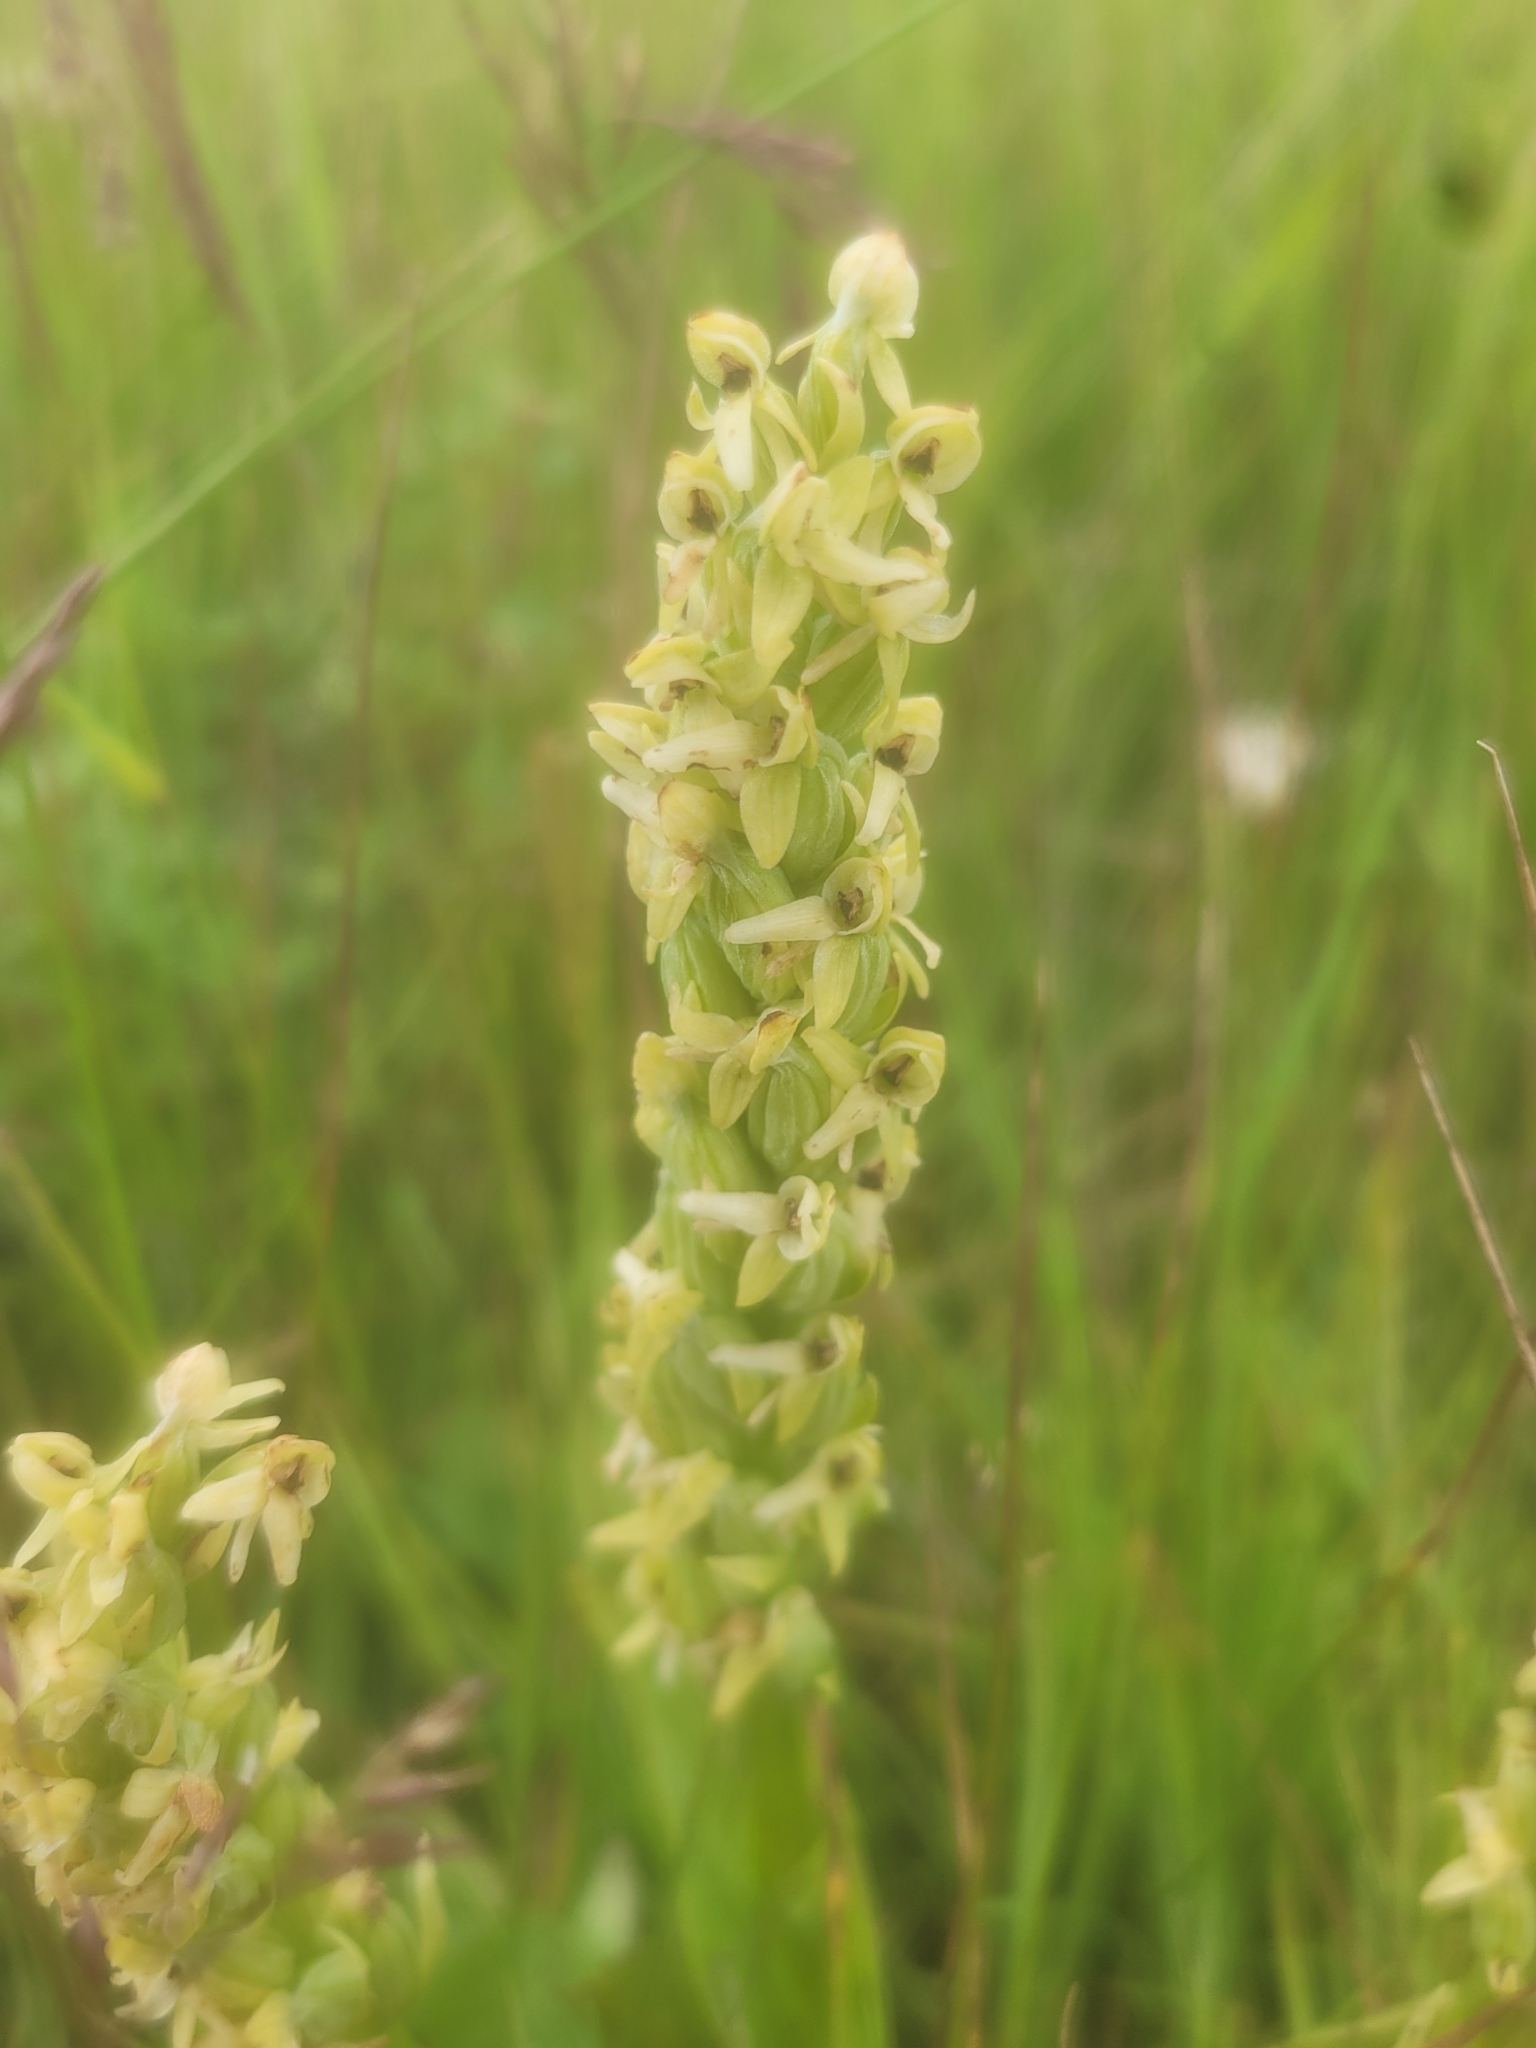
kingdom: Plantae
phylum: Tracheophyta
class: Liliopsida
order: Asparagales
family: Orchidaceae
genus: Platanthera
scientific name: Platanthera huronensis
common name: Fragrant green orchid
